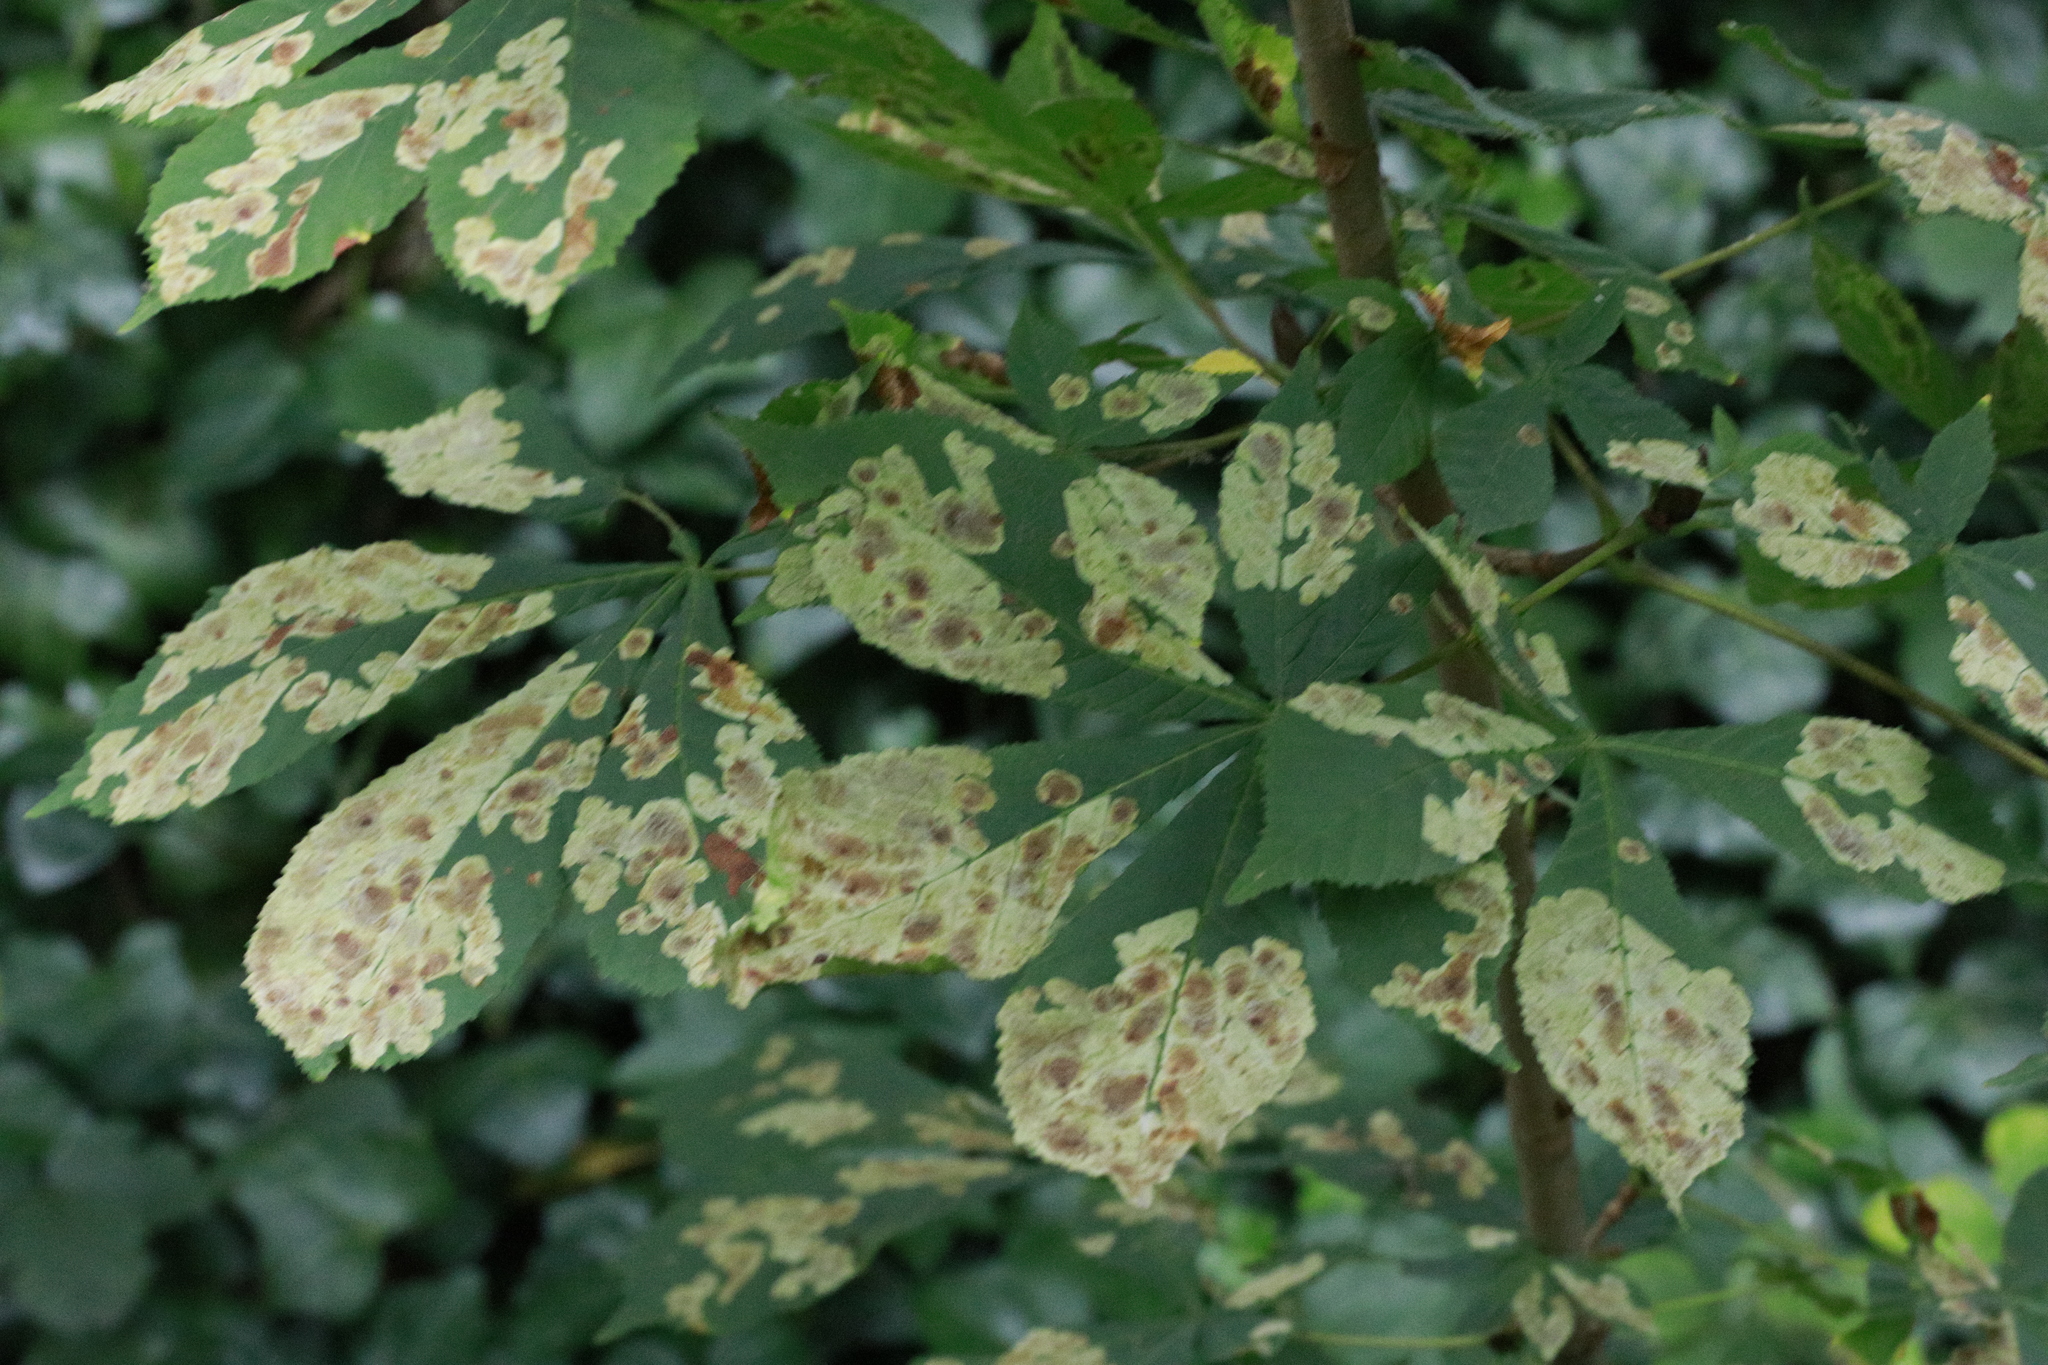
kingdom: Animalia
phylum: Arthropoda
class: Insecta
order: Lepidoptera
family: Gracillariidae
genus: Cameraria
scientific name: Cameraria ohridella
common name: Horse-chestnut leaf-miner
